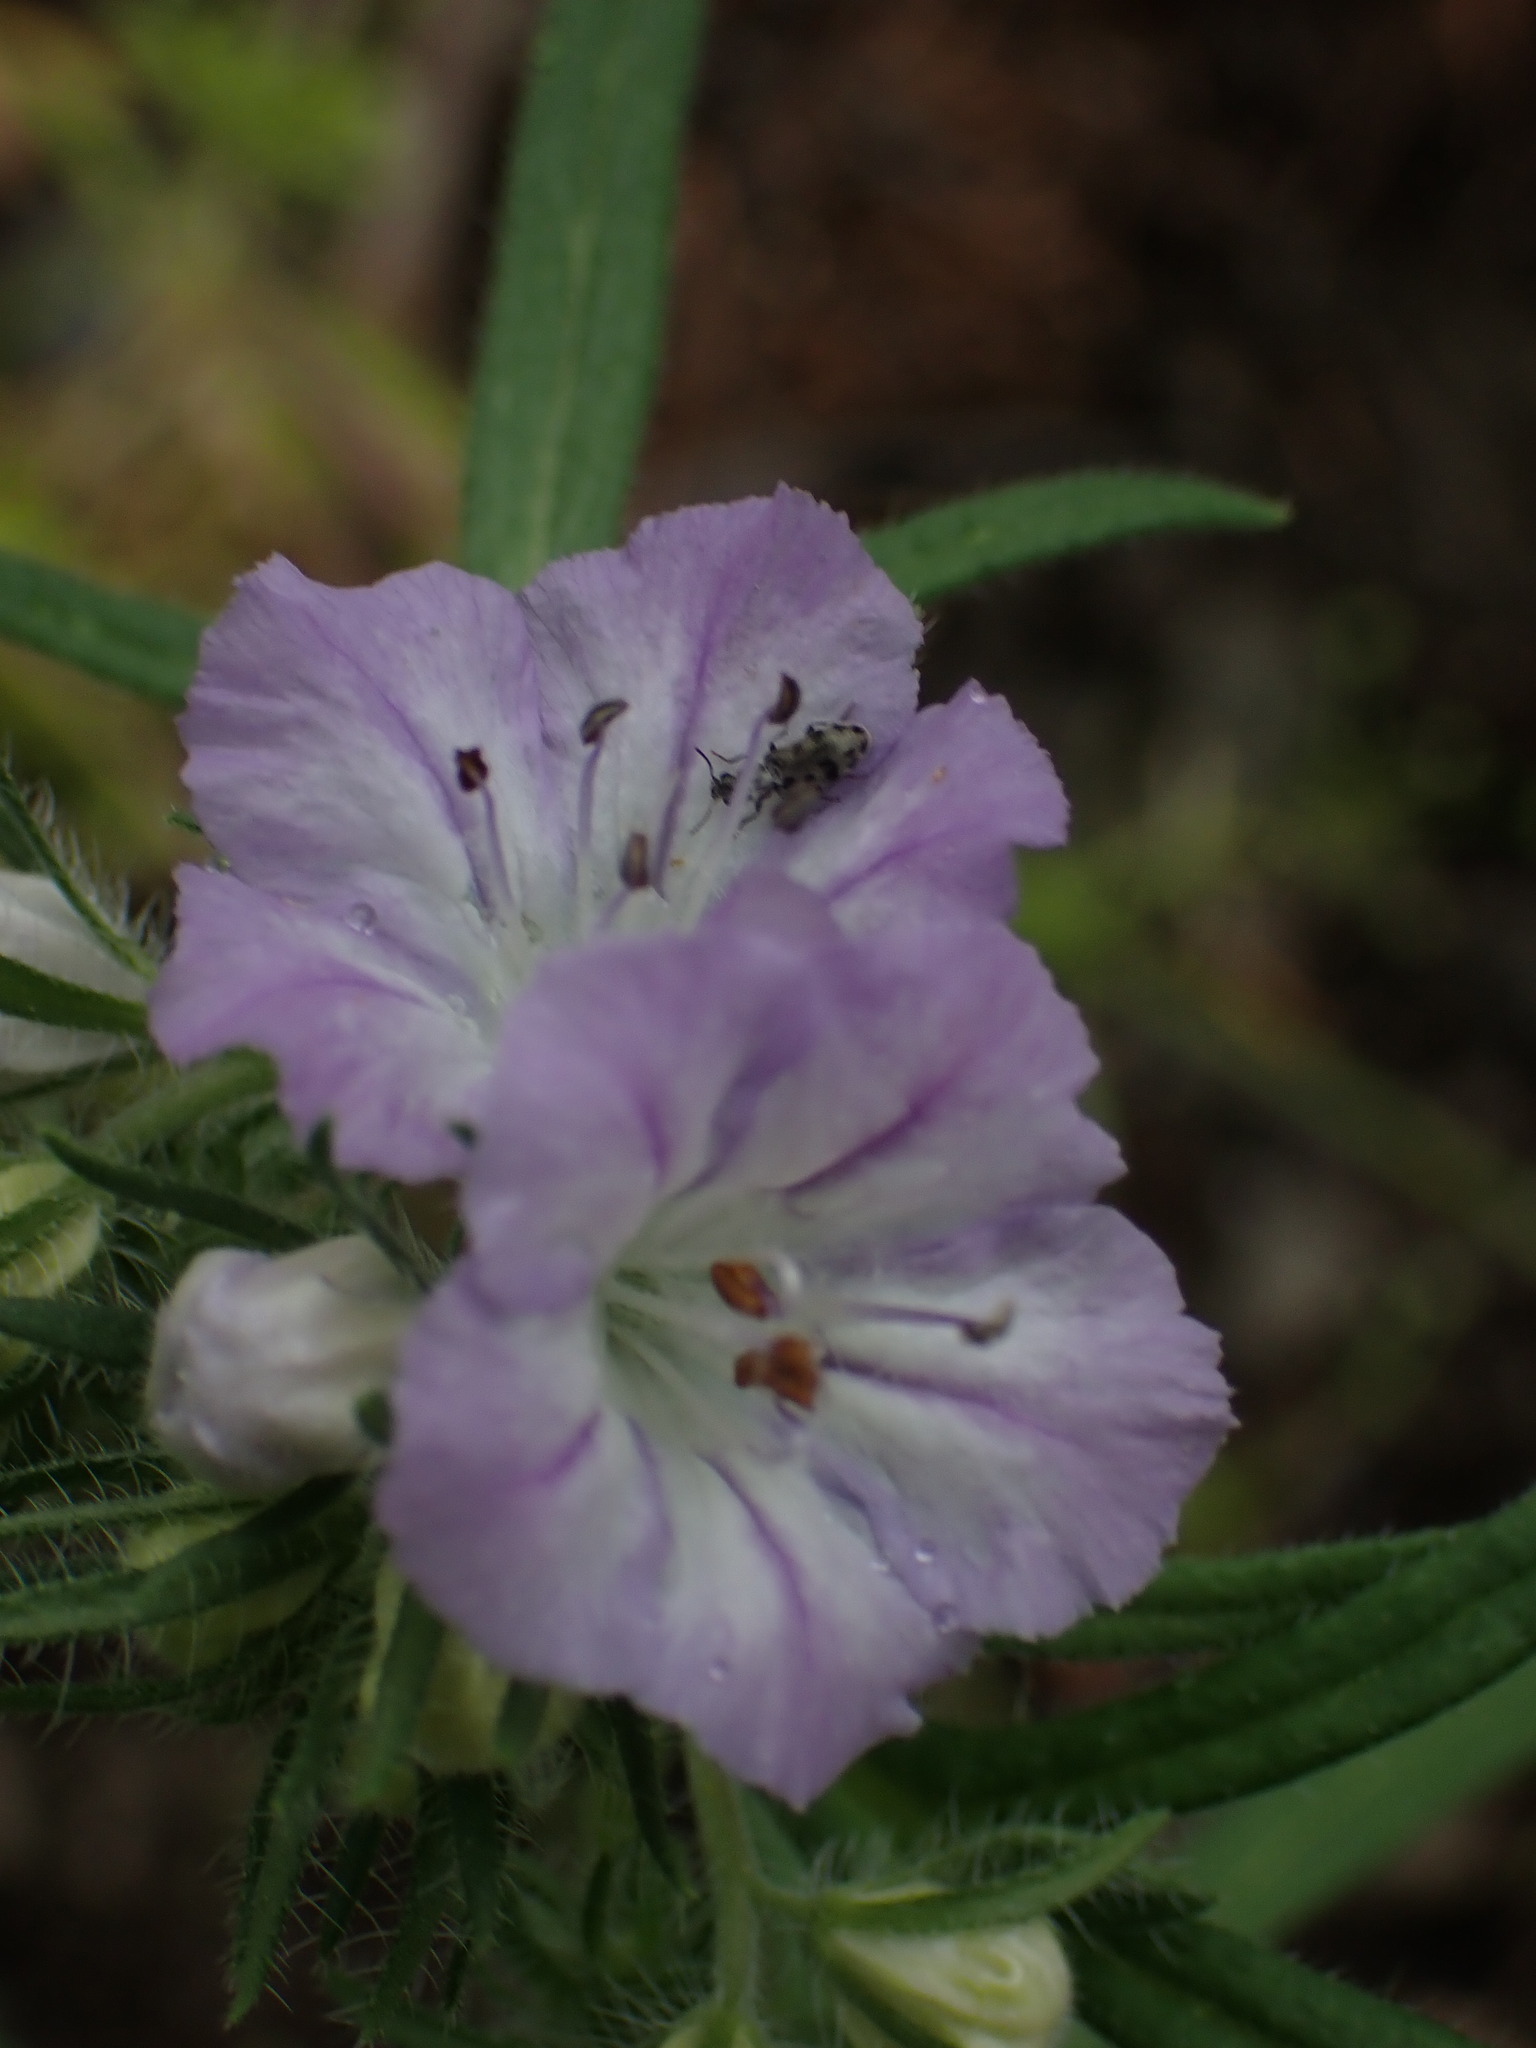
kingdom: Plantae
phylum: Tracheophyta
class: Magnoliopsida
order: Boraginales
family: Hydrophyllaceae
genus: Phacelia
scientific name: Phacelia linearis
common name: Linear-leaved phacelia
